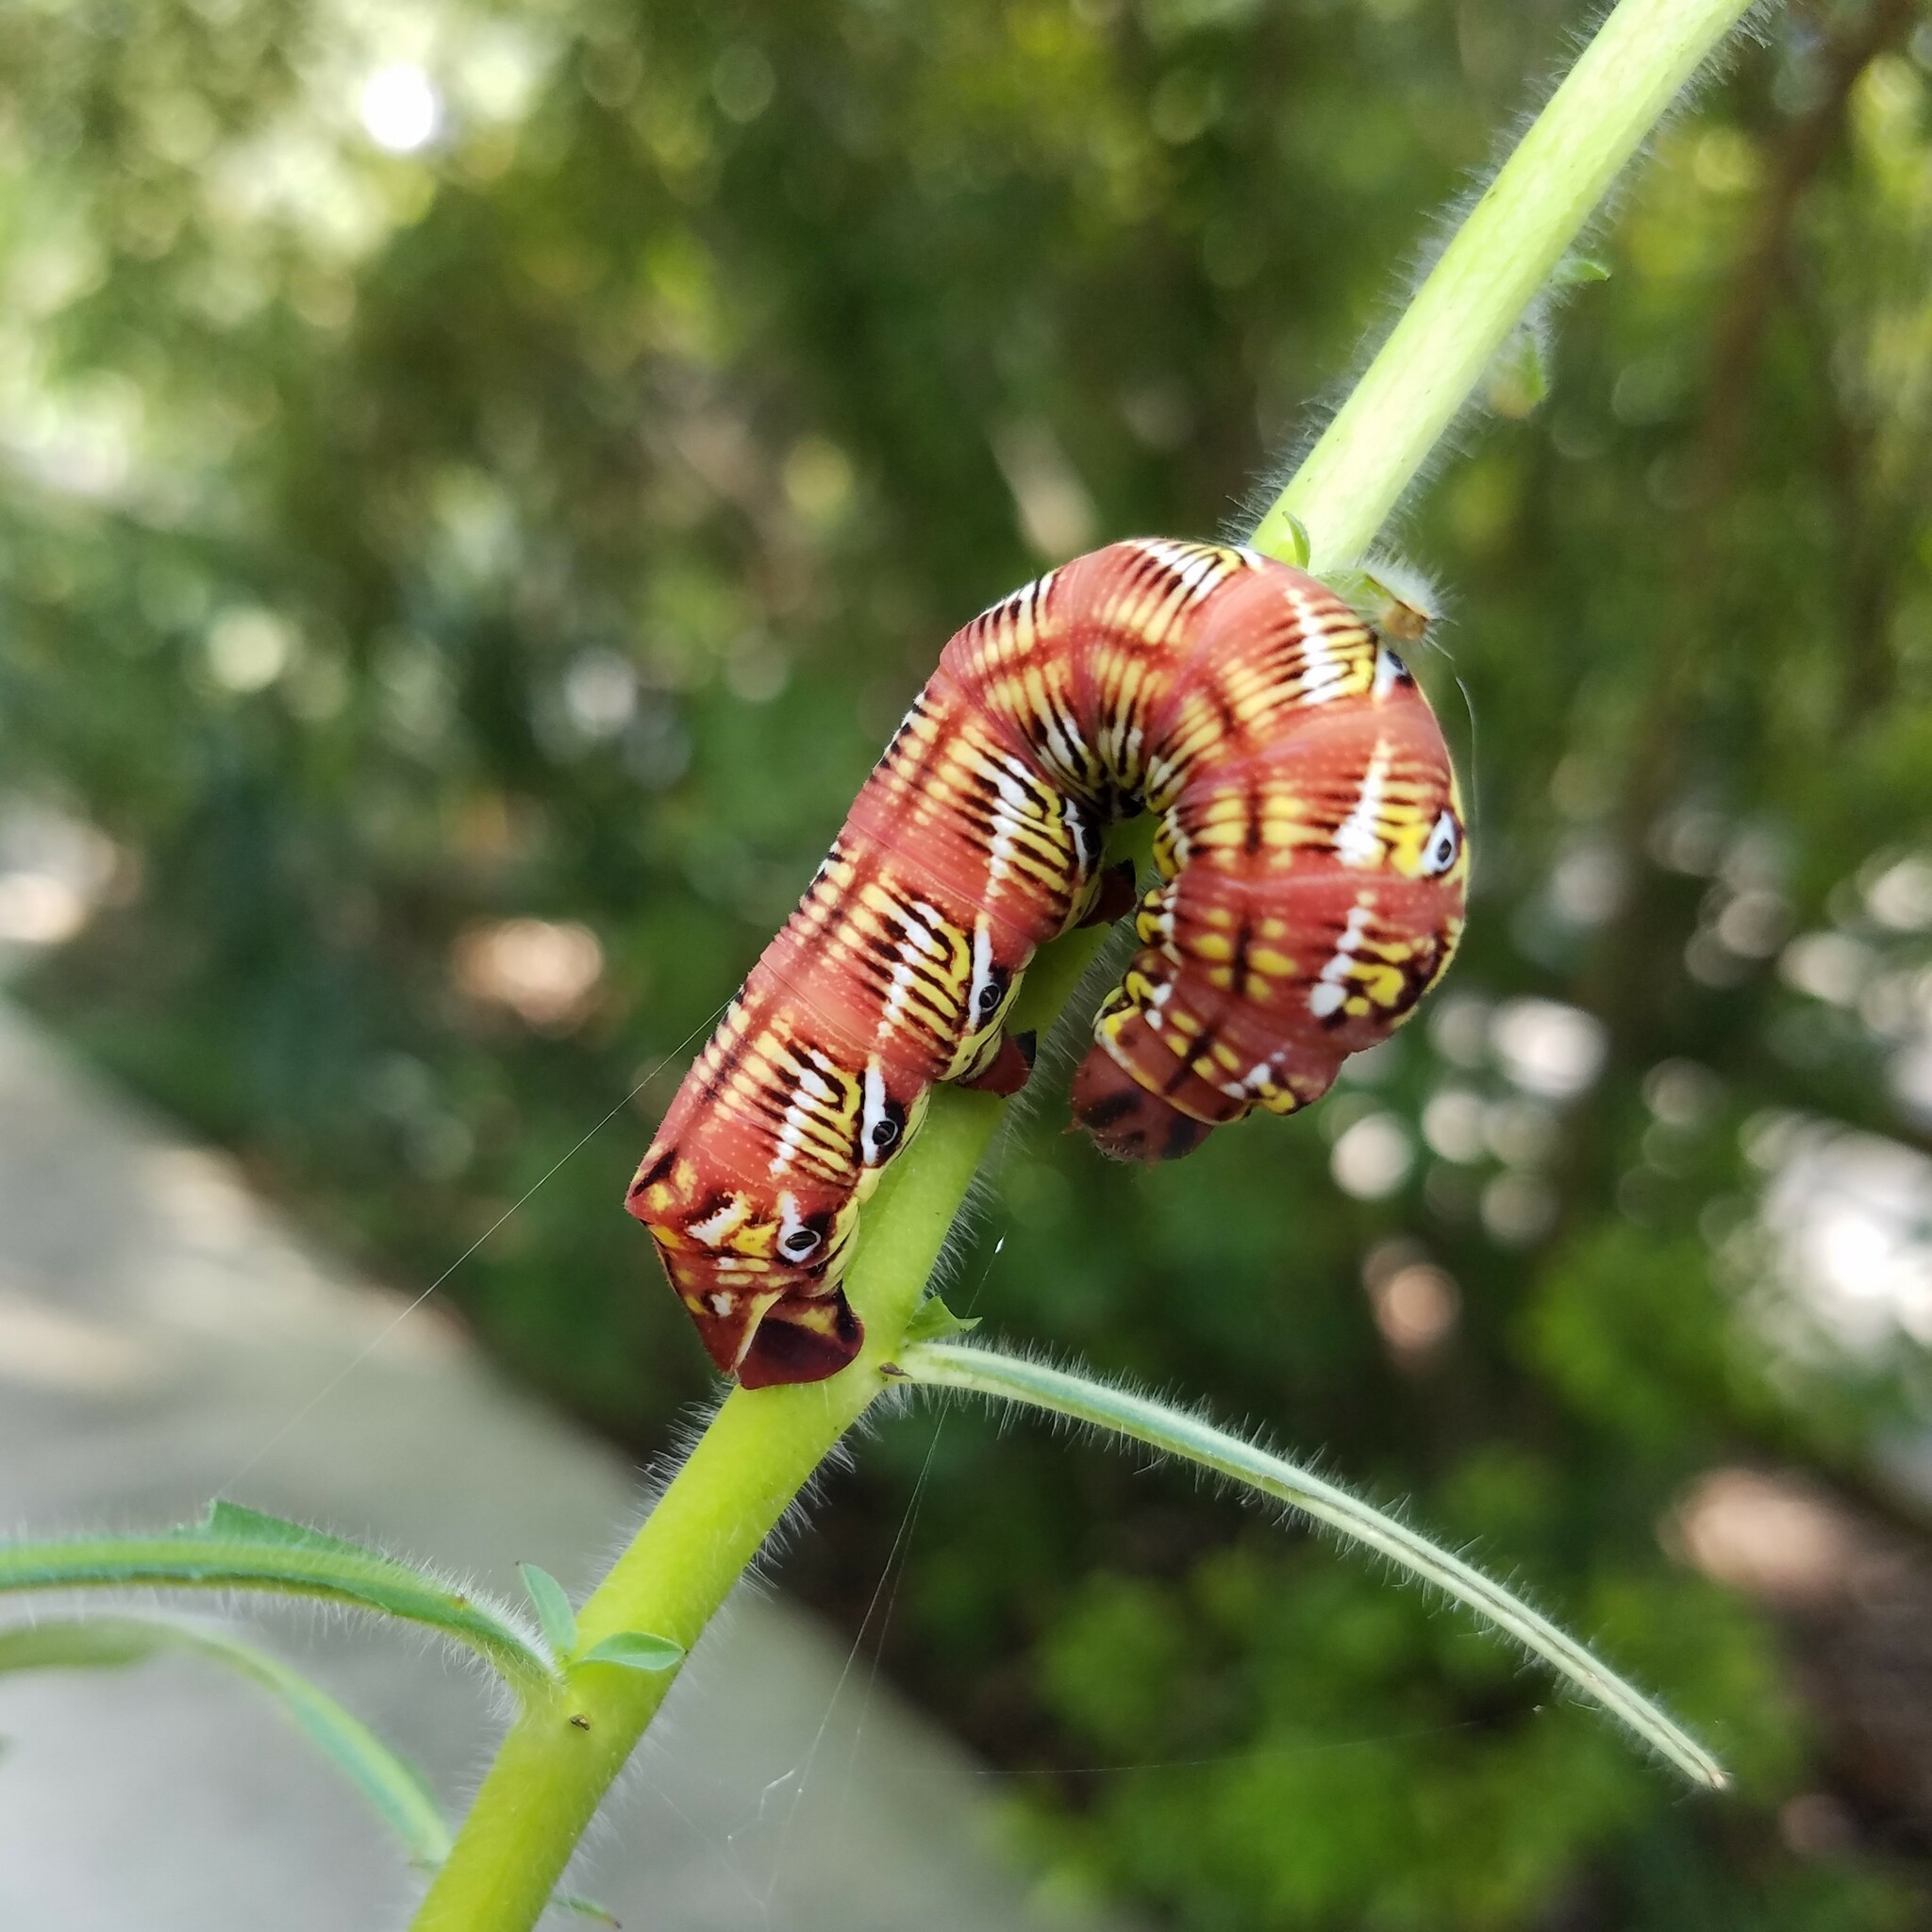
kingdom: Animalia
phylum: Arthropoda
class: Insecta
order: Lepidoptera
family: Sphingidae
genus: Eumorpha
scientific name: Eumorpha fasciatus
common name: Banded sphinx
